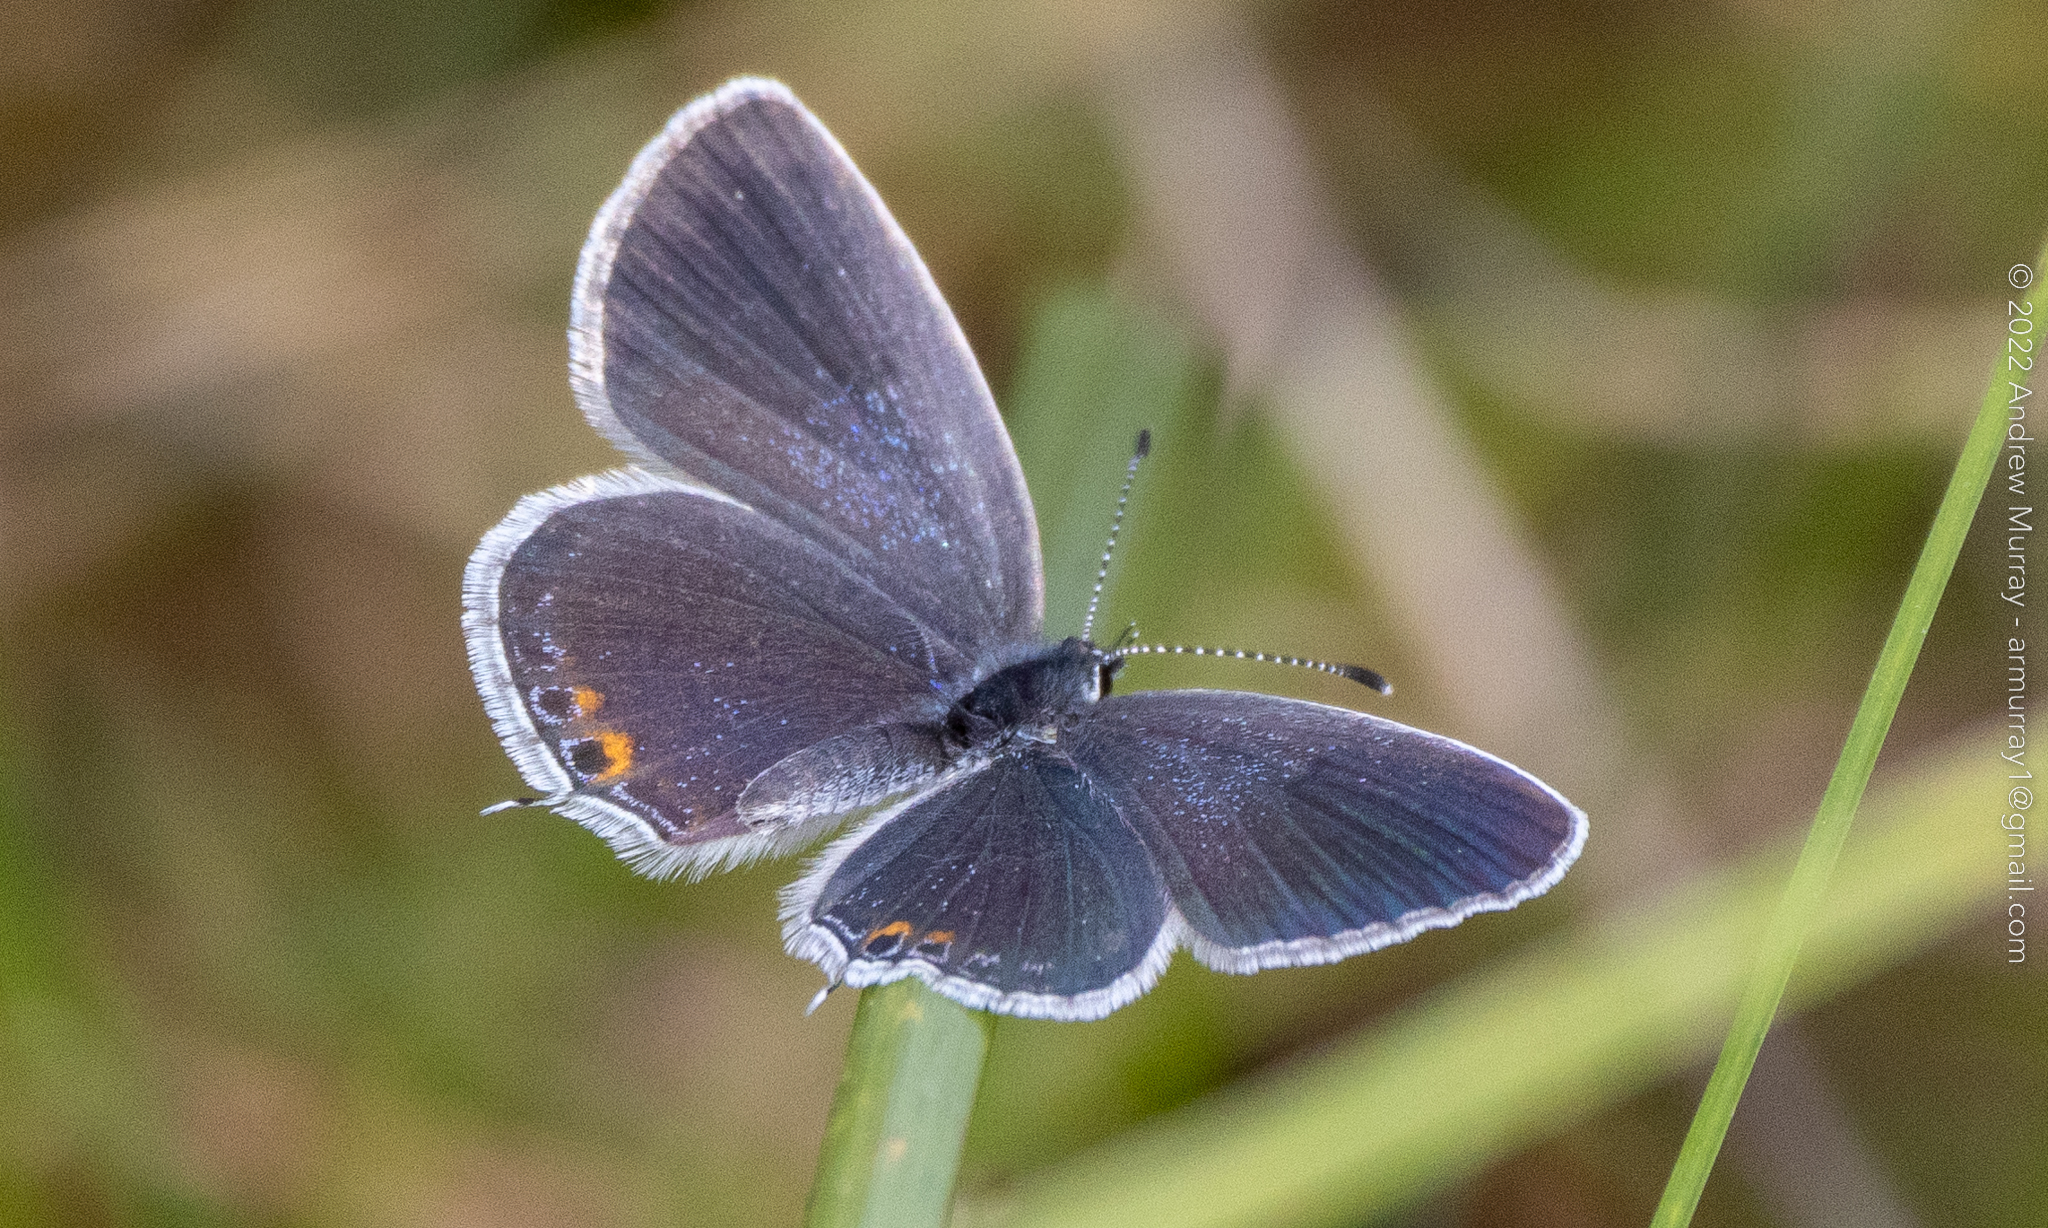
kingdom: Animalia
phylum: Arthropoda
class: Insecta
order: Lepidoptera
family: Lycaenidae
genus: Elkalyce
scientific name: Elkalyce comyntas
